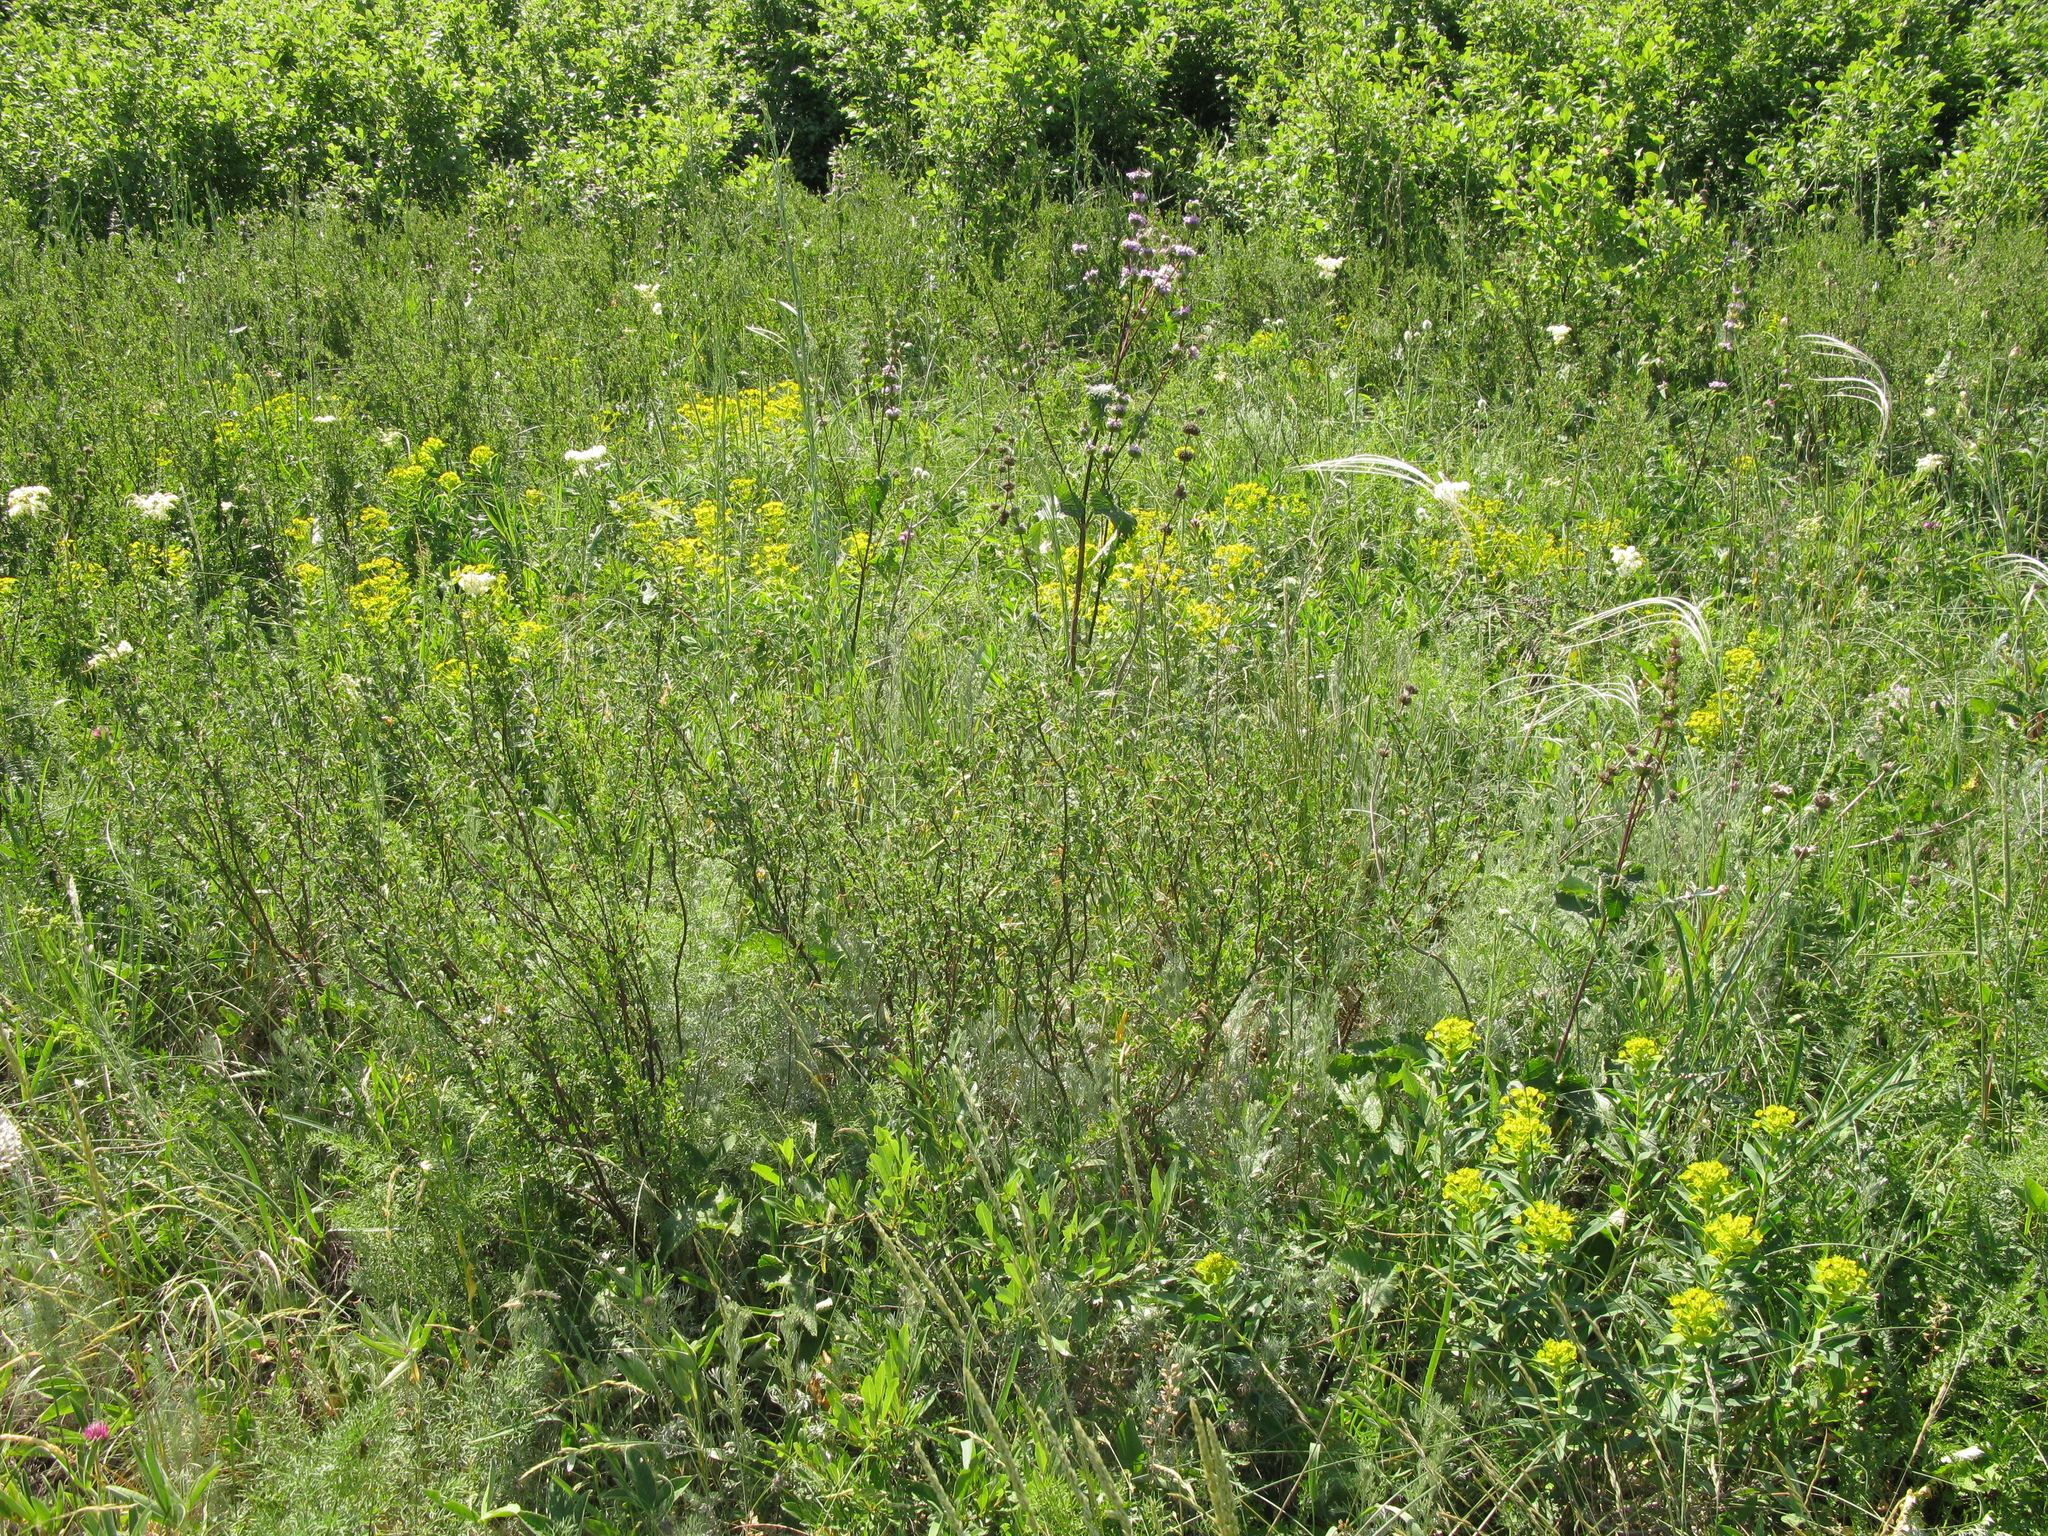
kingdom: Plantae
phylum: Tracheophyta
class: Magnoliopsida
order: Lamiales
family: Lamiaceae
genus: Phlomoides
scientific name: Phlomoides tuberosa
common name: Tuberous jerusalem sage
